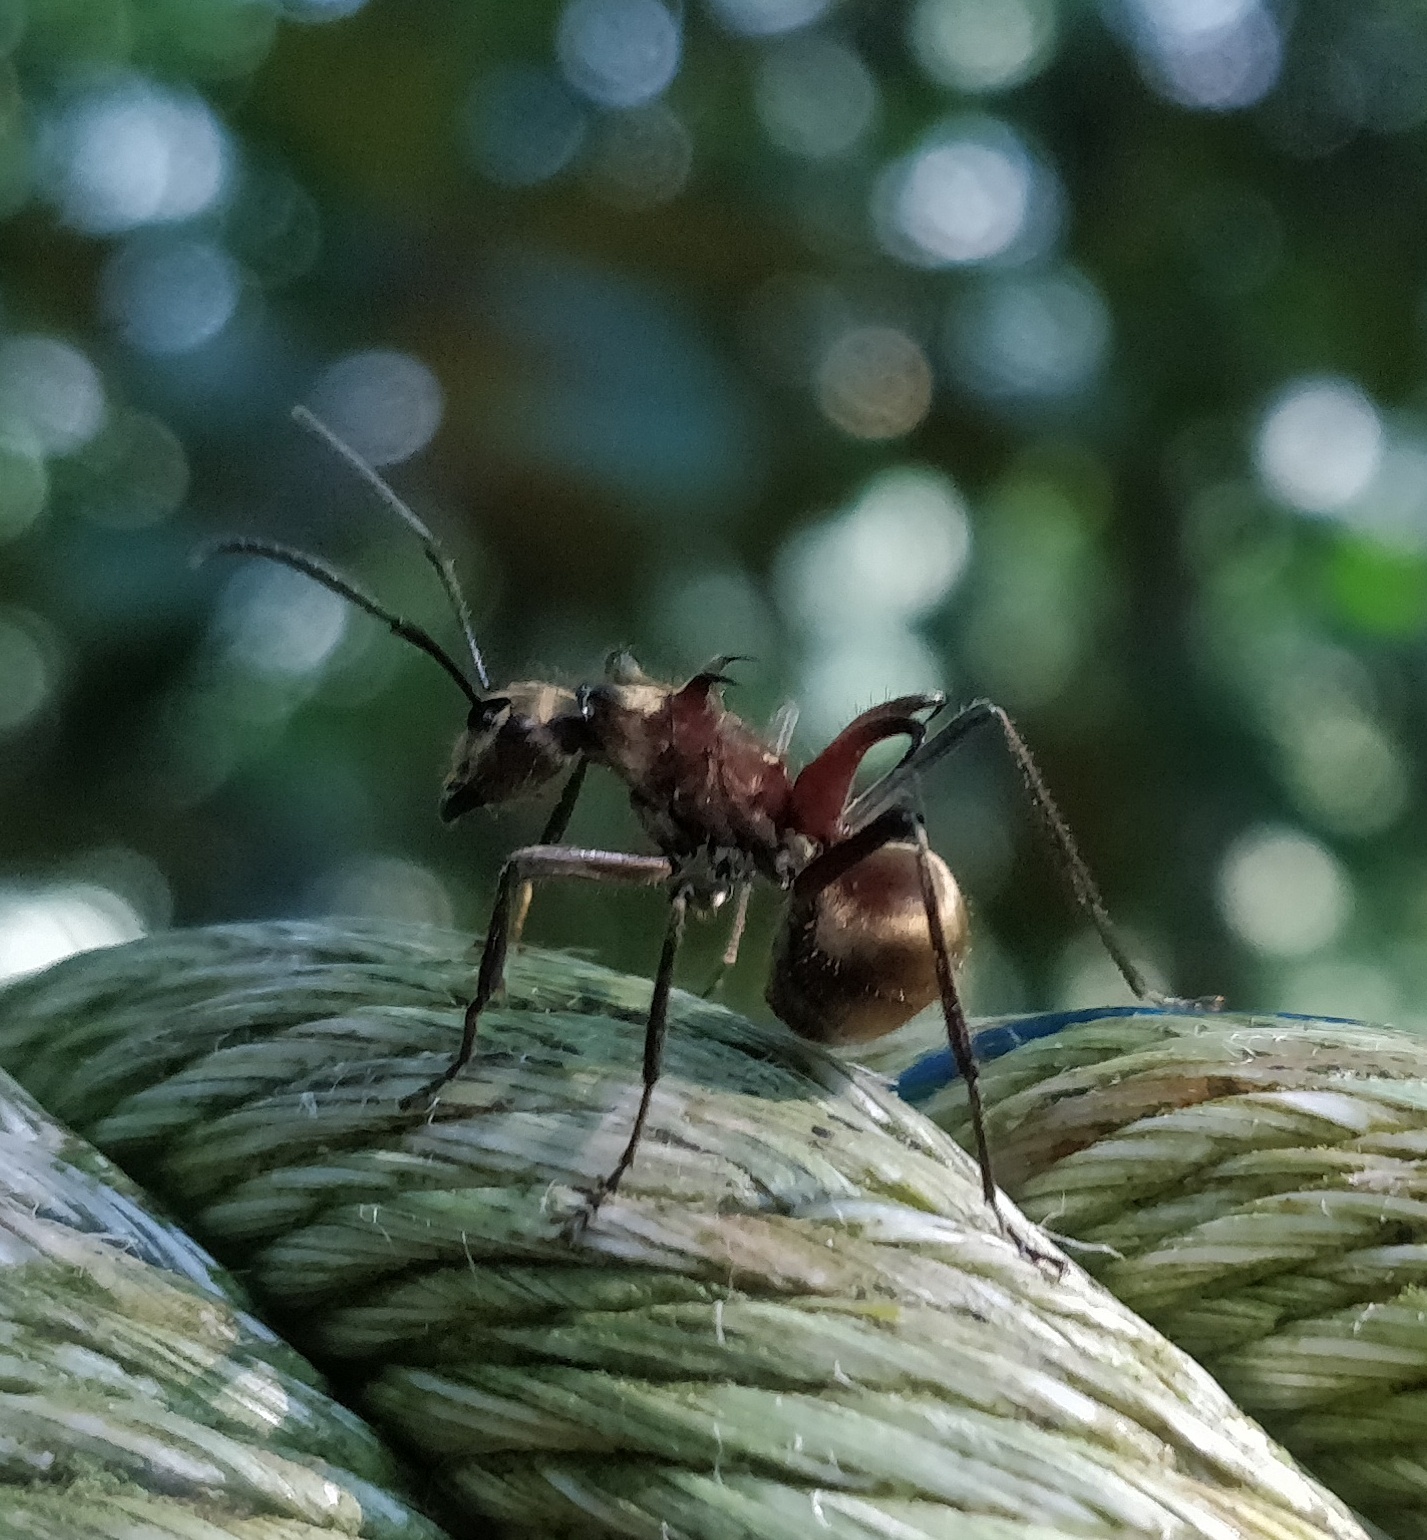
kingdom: Animalia
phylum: Arthropoda
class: Insecta
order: Hymenoptera
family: Formicidae
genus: Polyrhachis
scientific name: Polyrhachis ypsilon
